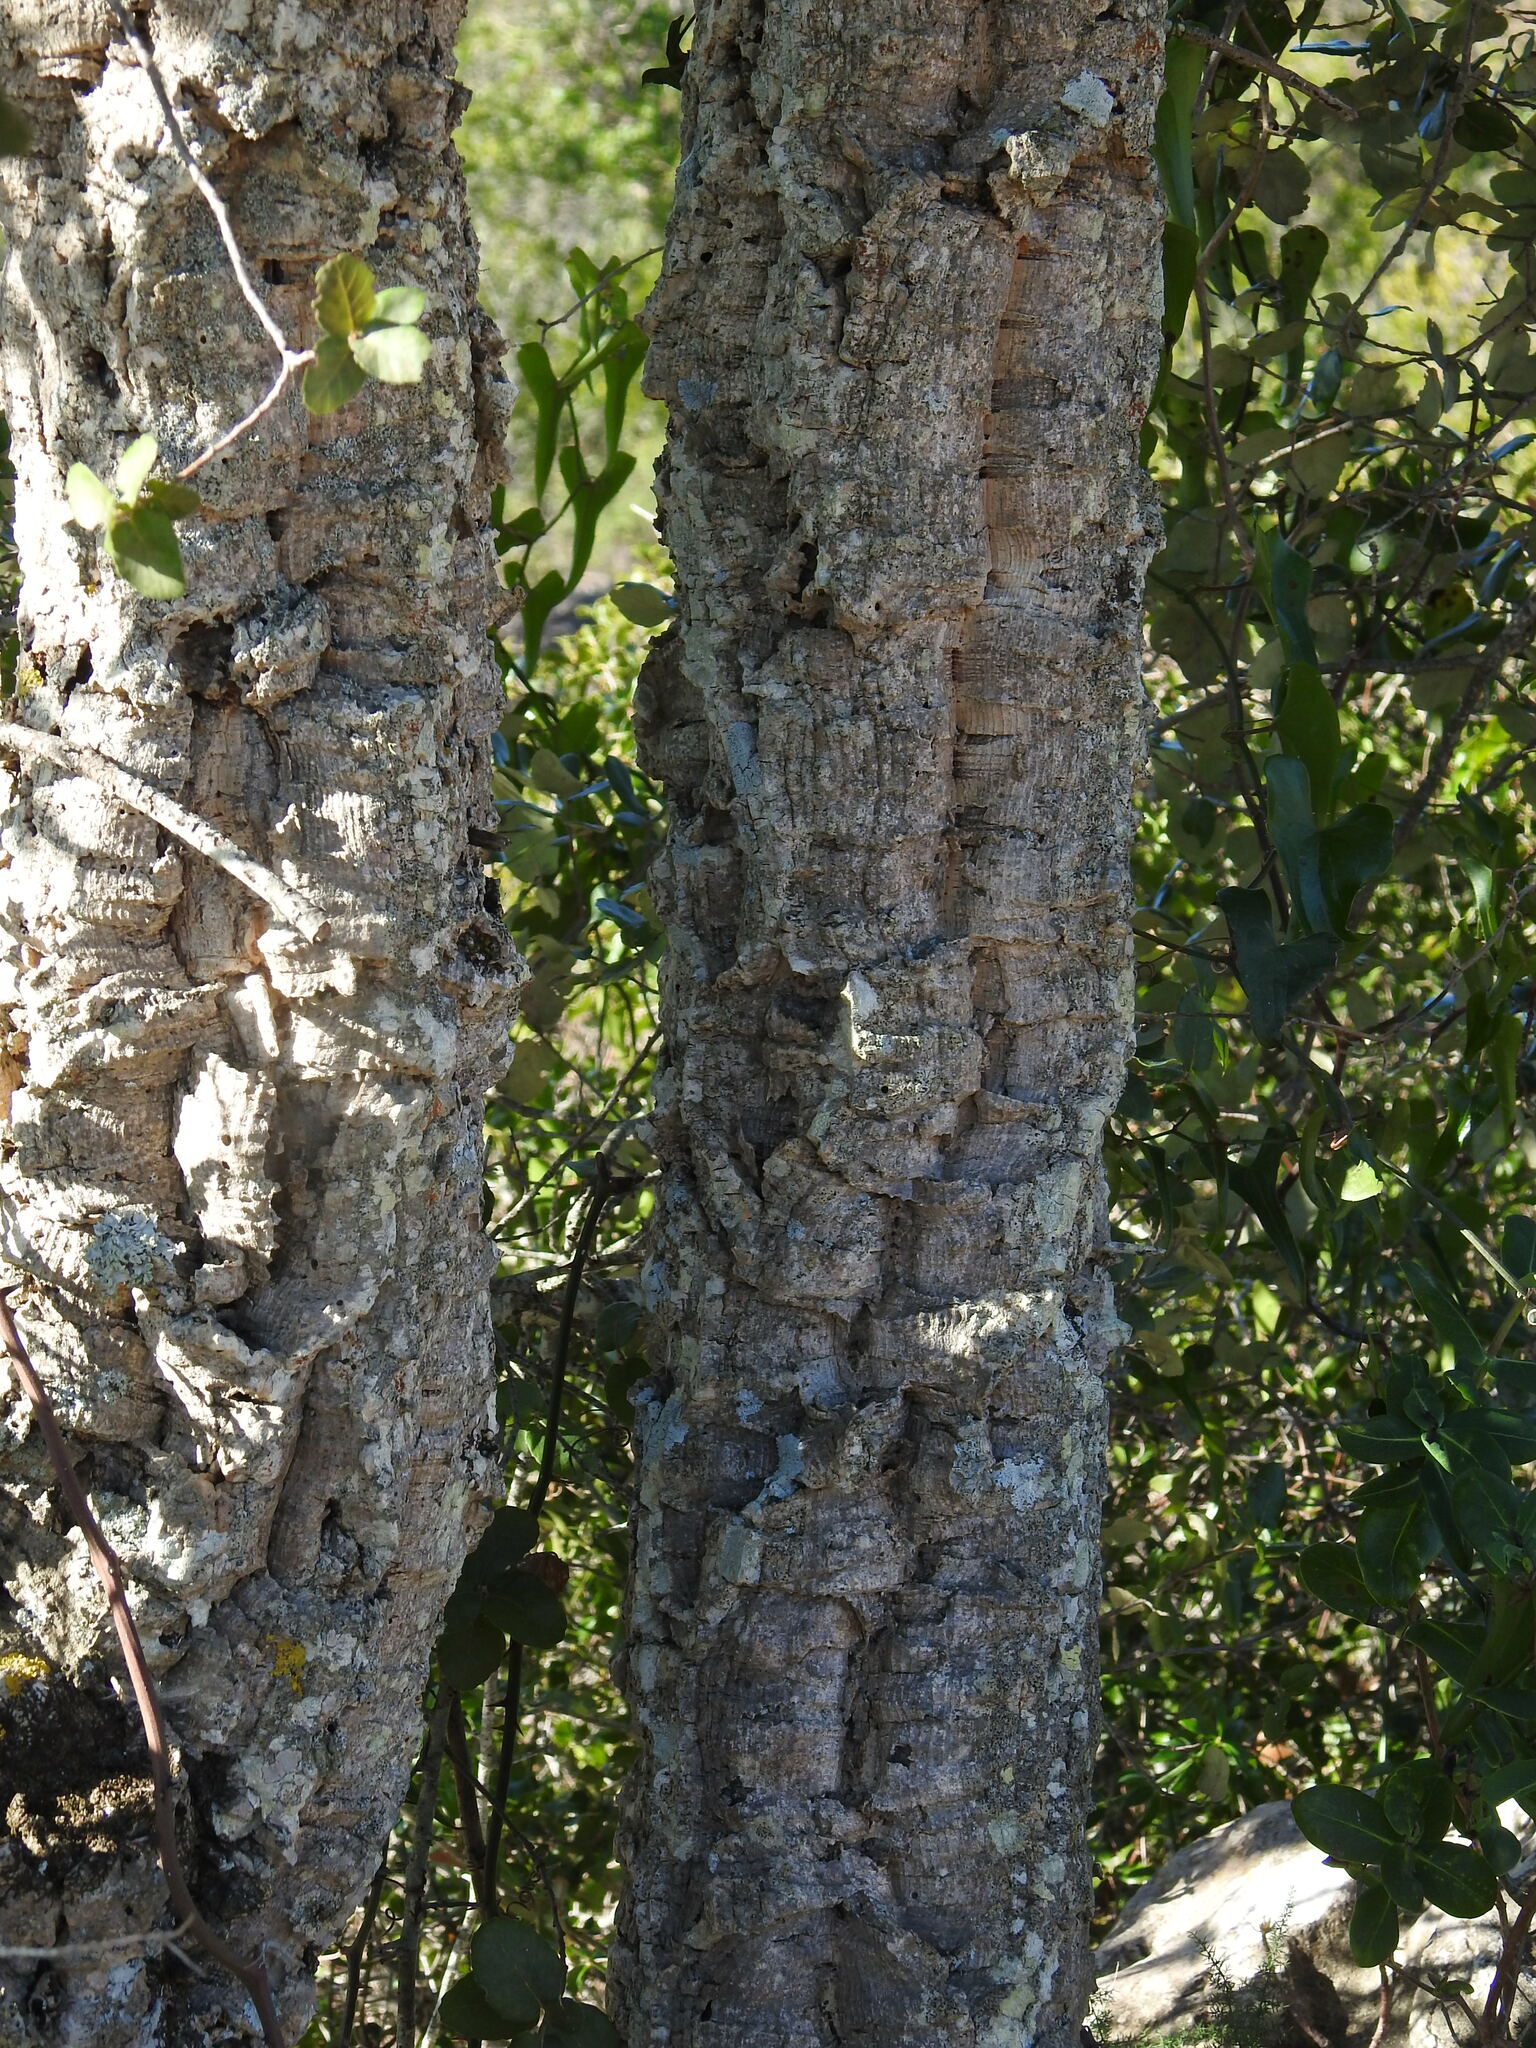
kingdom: Plantae
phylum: Tracheophyta
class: Magnoliopsida
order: Fagales
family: Fagaceae
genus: Quercus
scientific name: Quercus suber
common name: Cork oak
